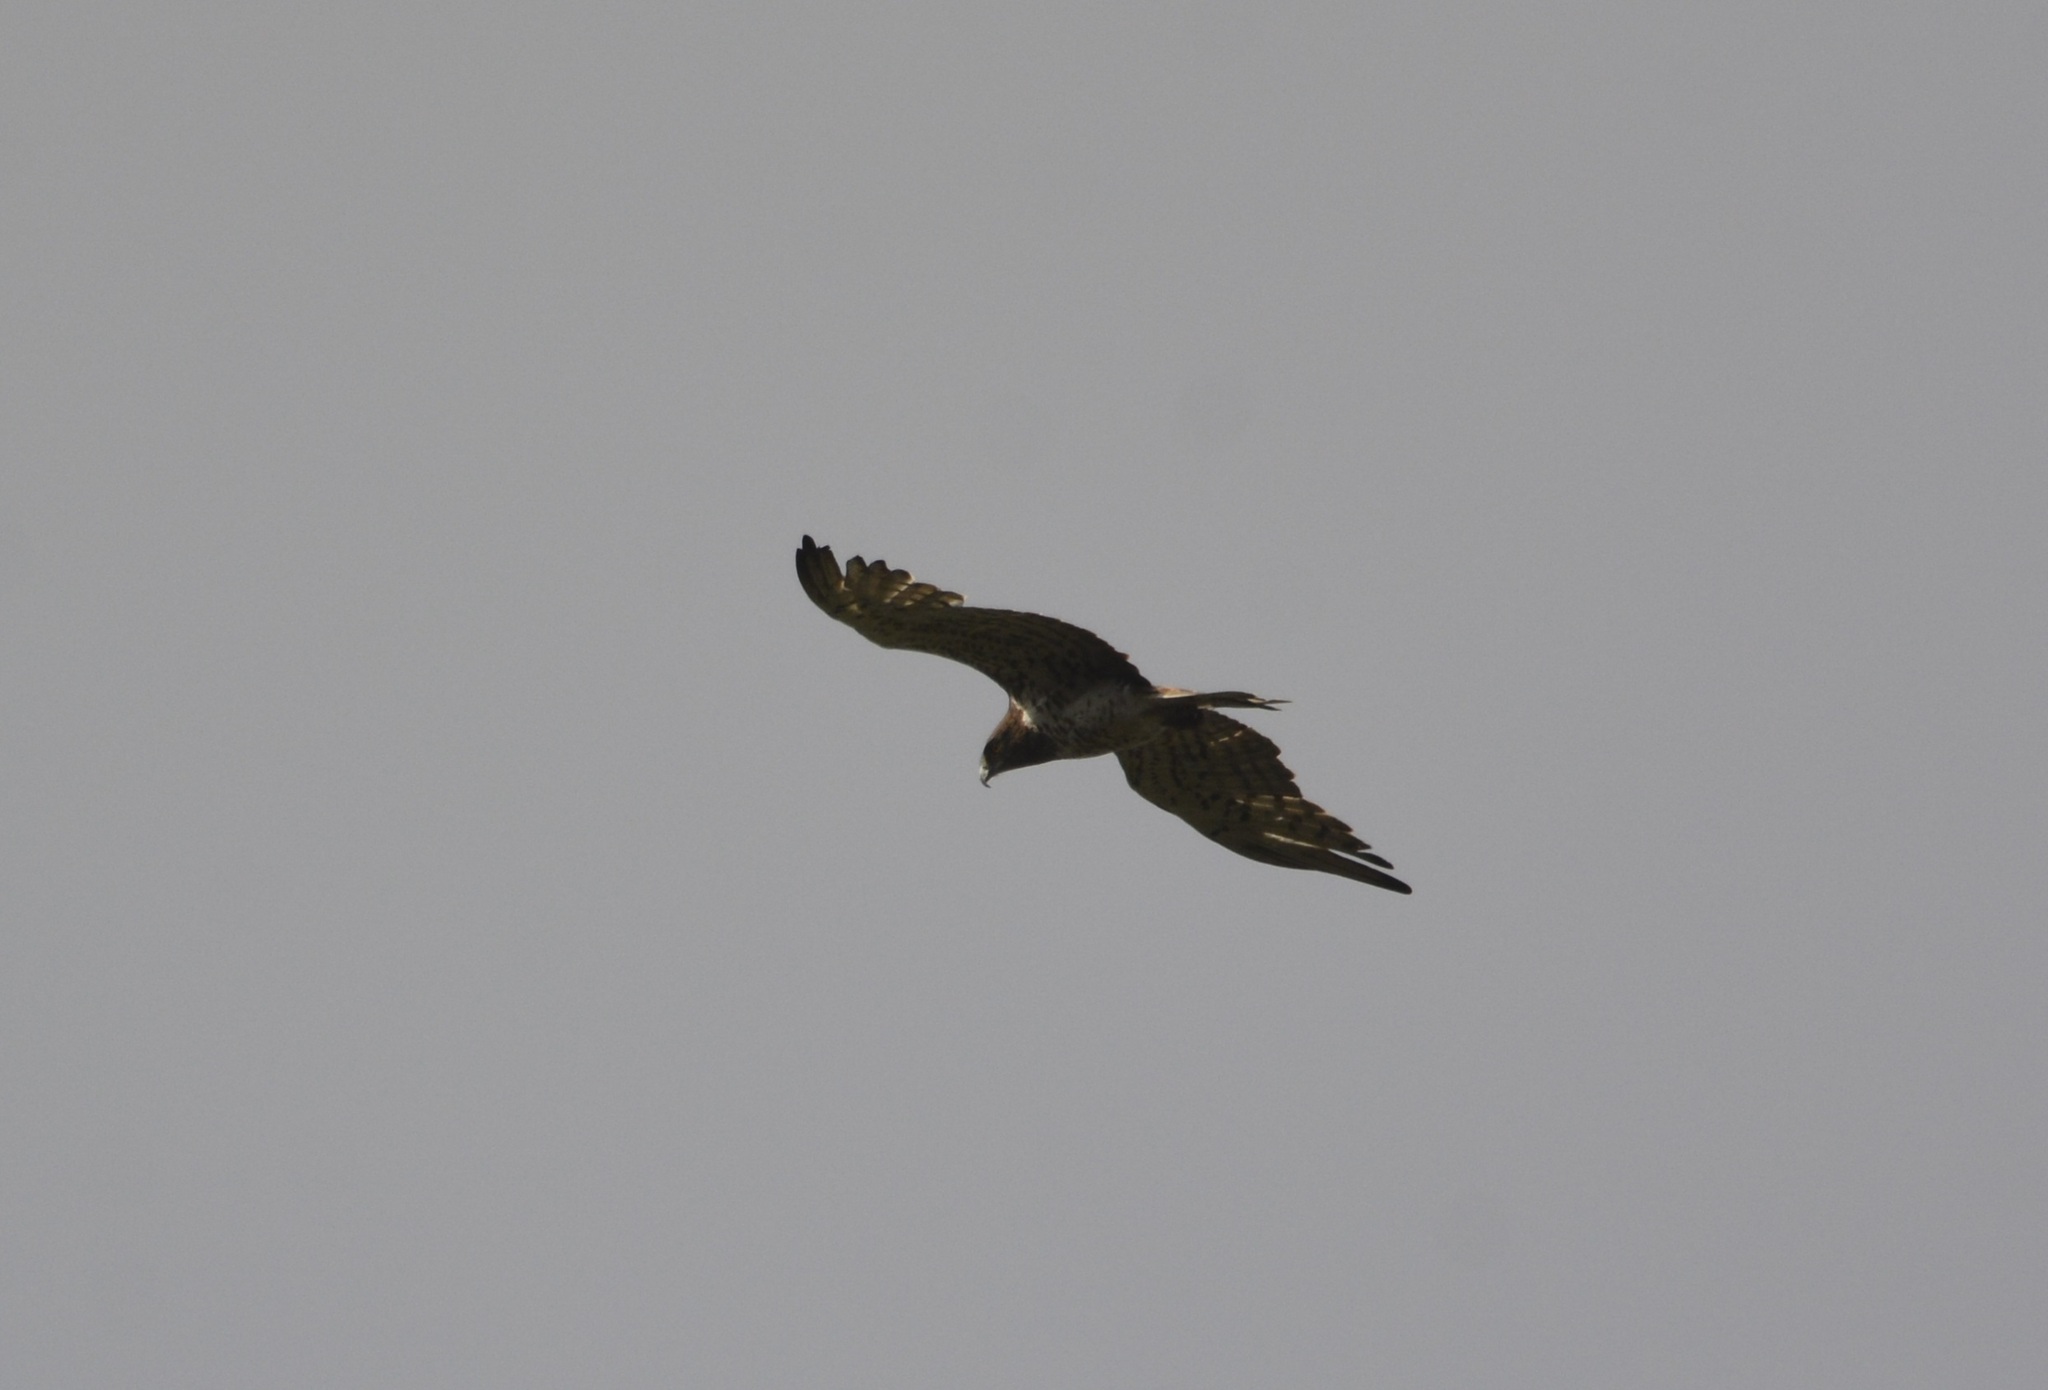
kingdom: Animalia
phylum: Chordata
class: Aves
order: Accipitriformes
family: Accipitridae
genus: Circaetus
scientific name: Circaetus gallicus
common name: Short-toed snake eagle
